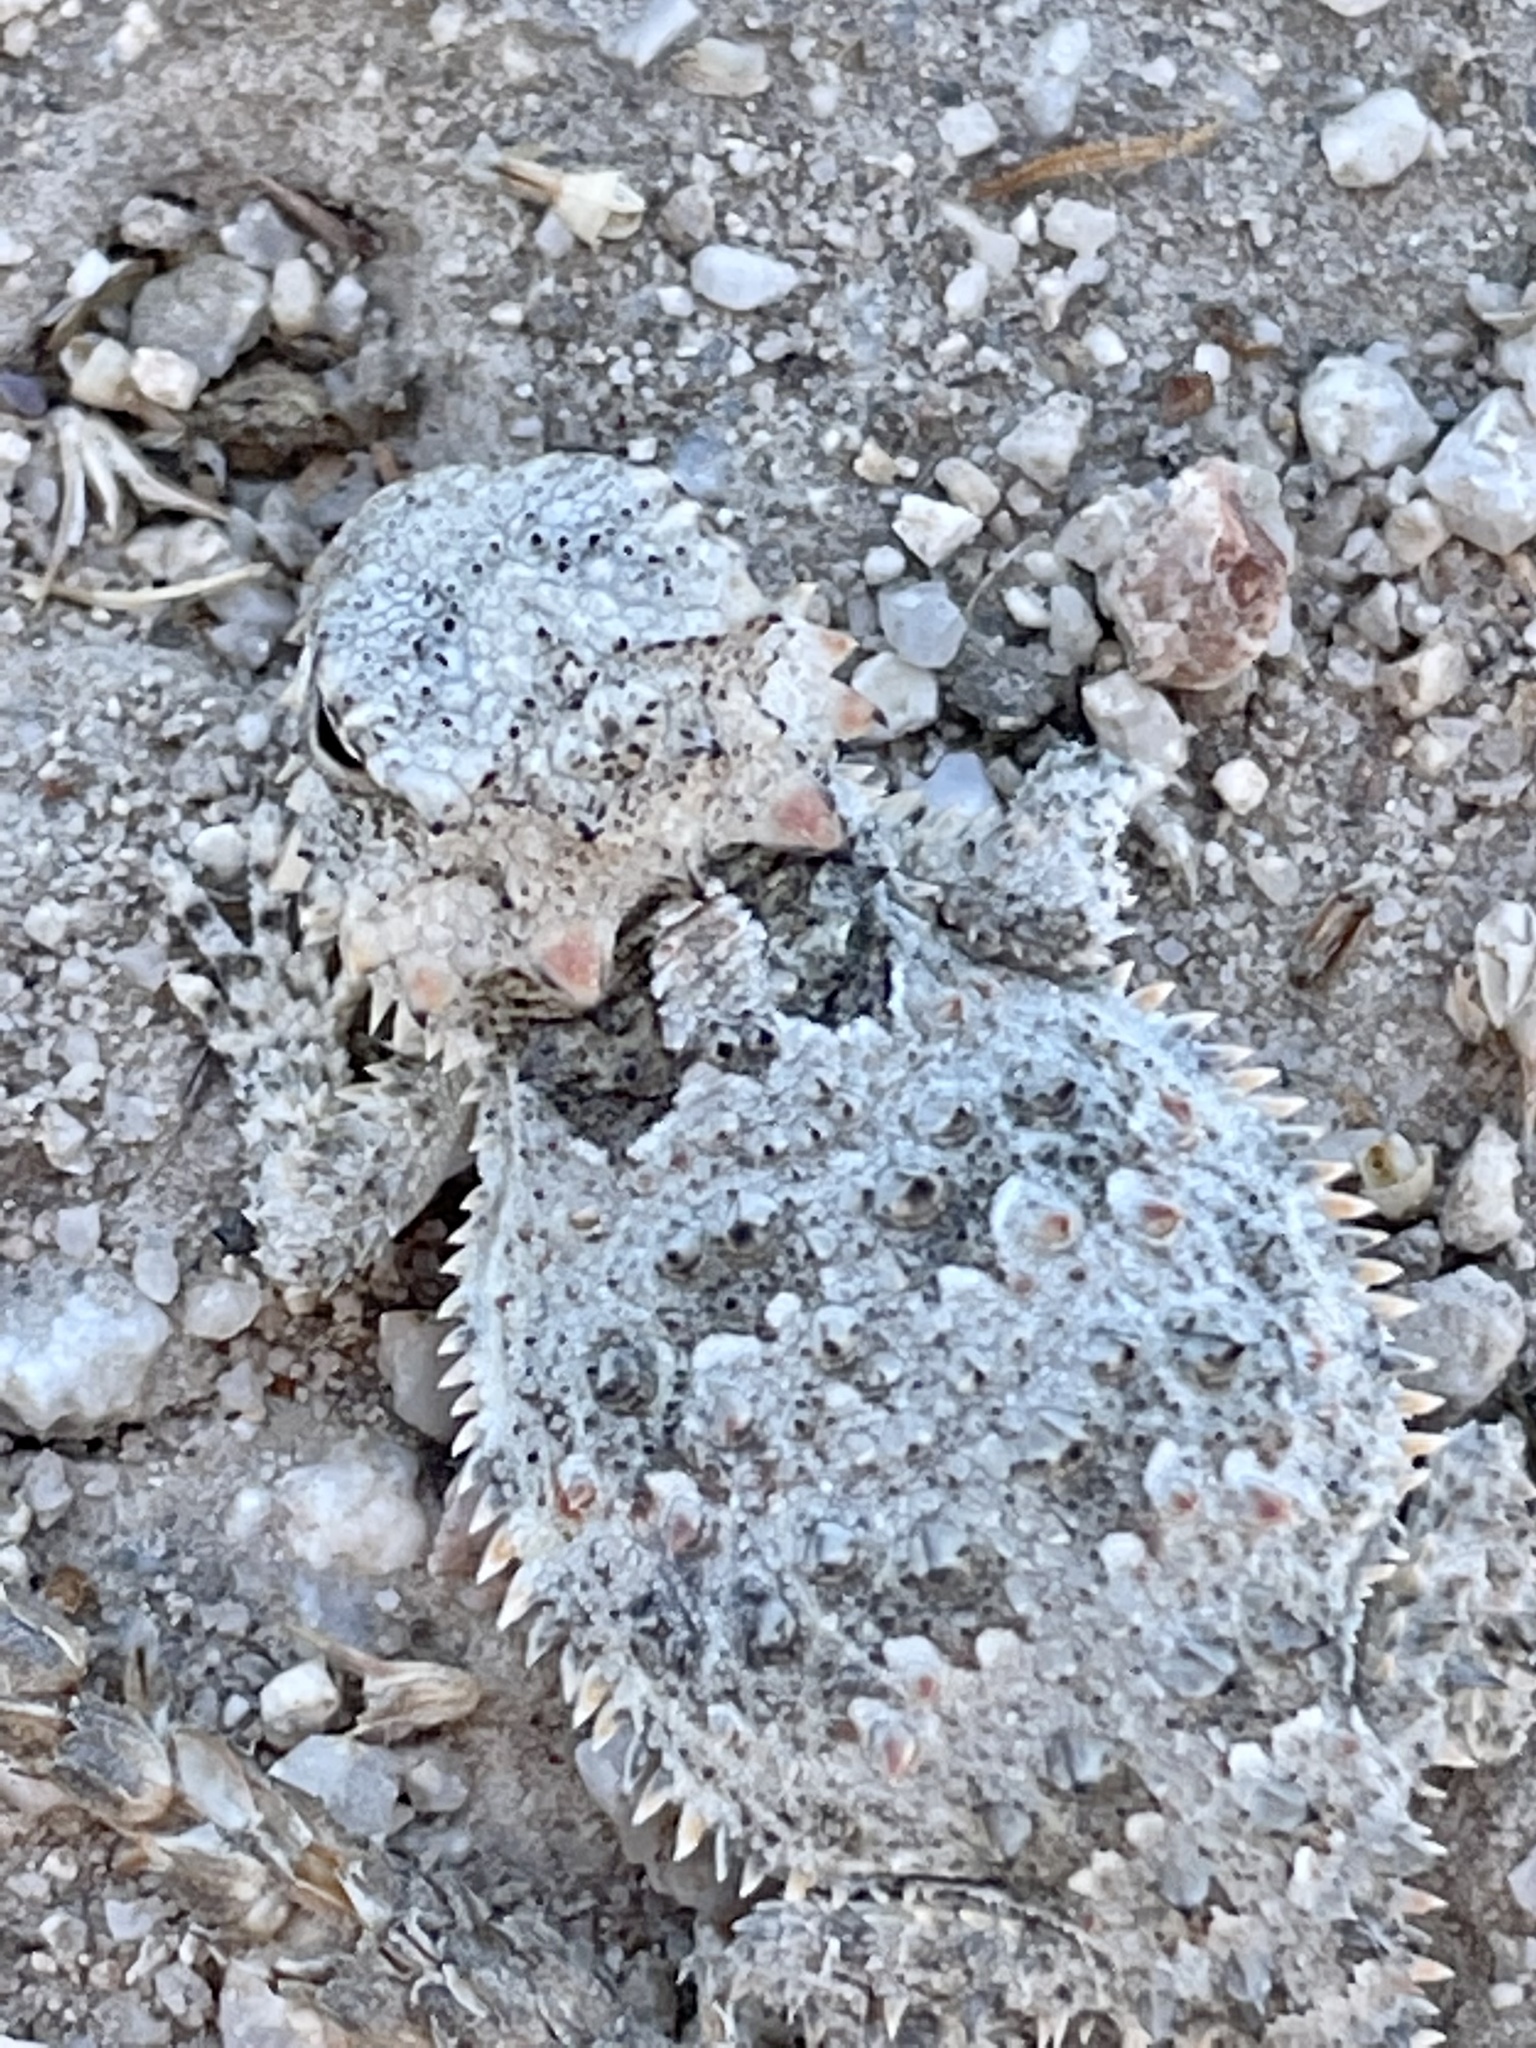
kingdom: Animalia
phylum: Chordata
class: Squamata
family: Phrynosomatidae
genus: Phrynosoma
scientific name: Phrynosoma blainvillii
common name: San diego horned lizard
